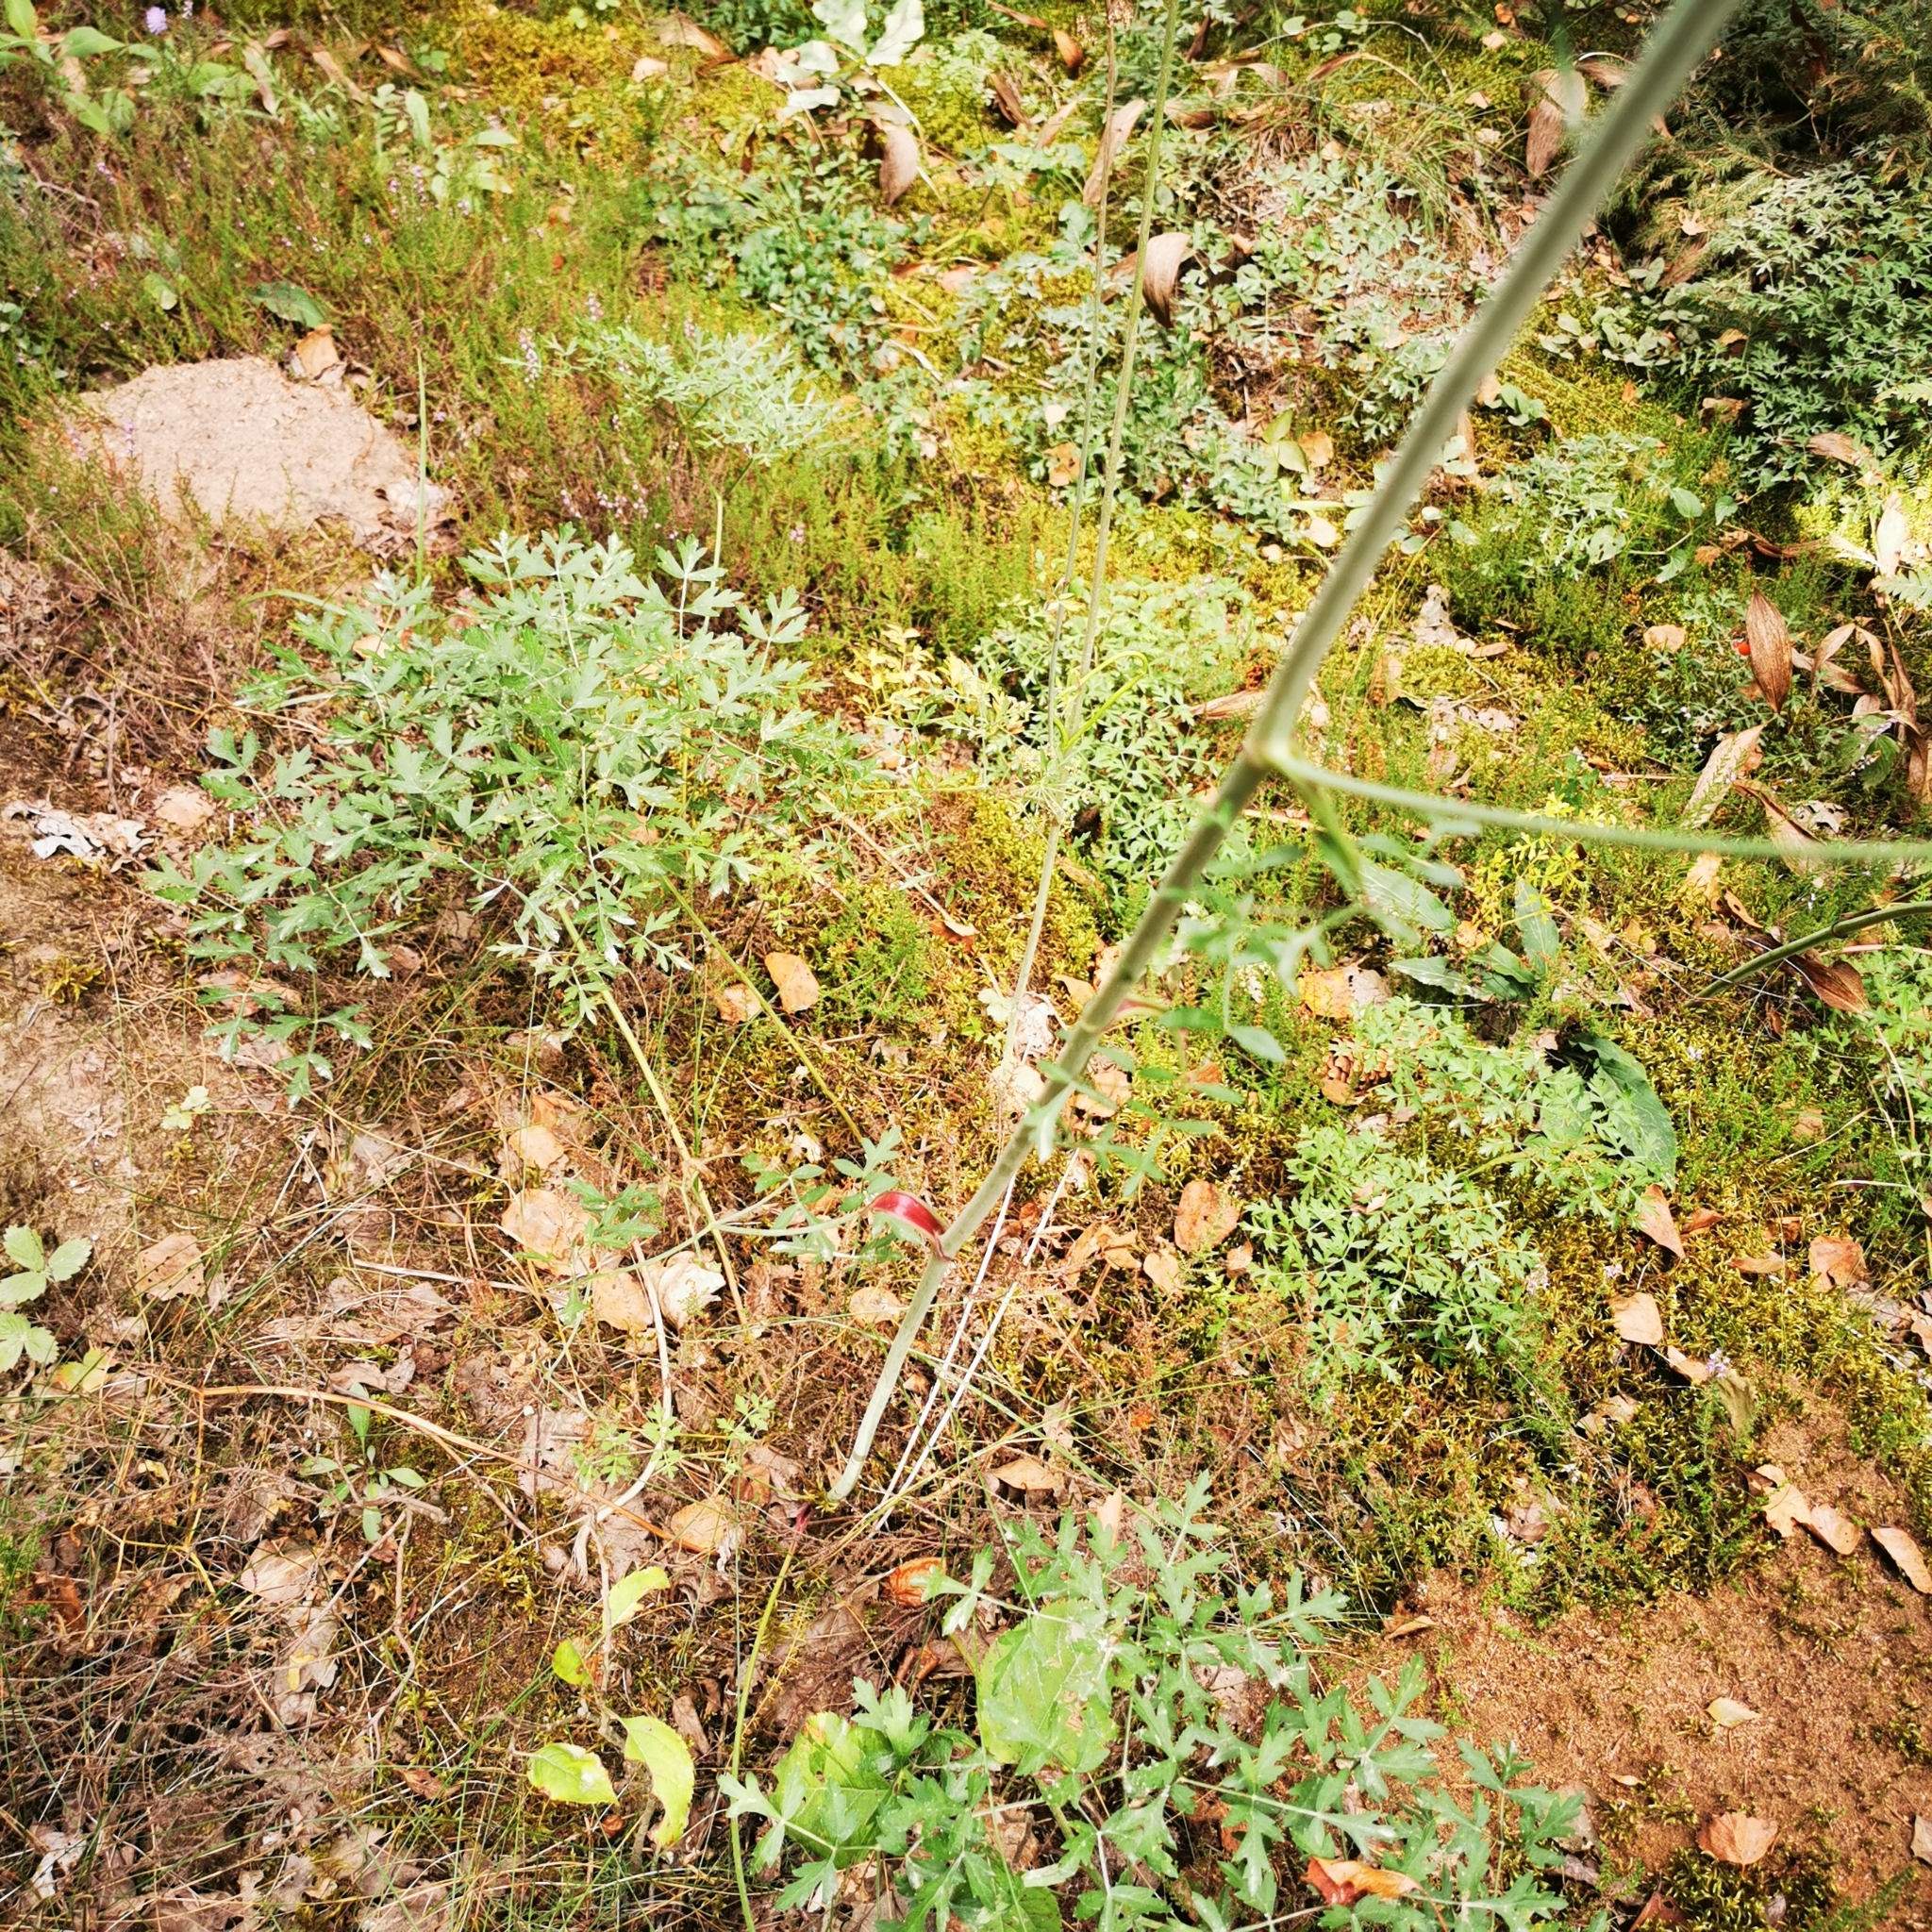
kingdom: Plantae
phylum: Tracheophyta
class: Magnoliopsida
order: Apiales
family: Apiaceae
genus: Oreoselinum
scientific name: Oreoselinum nigrum
